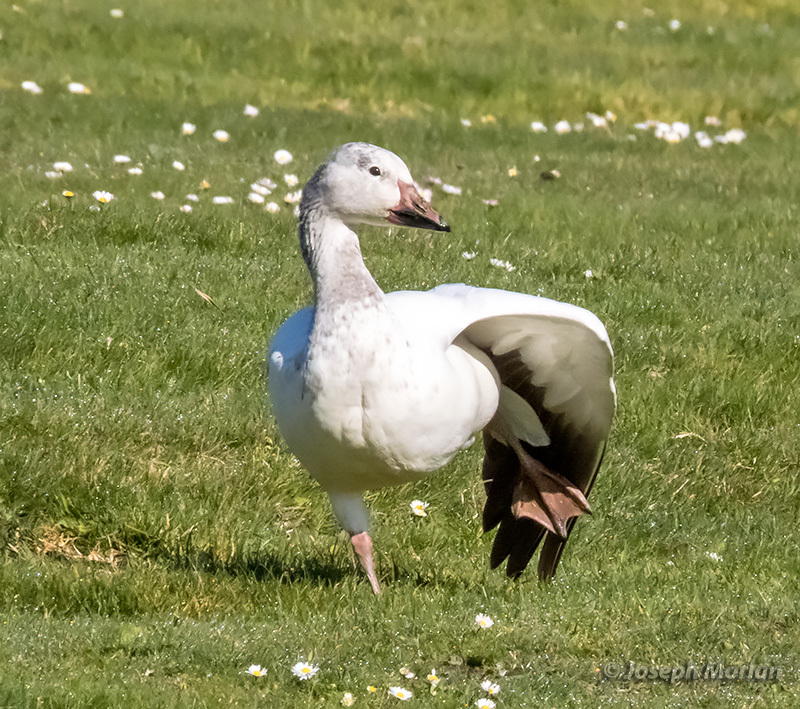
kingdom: Animalia
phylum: Chordata
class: Aves
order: Anseriformes
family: Anatidae
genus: Anser
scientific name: Anser caerulescens
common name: Snow goose
